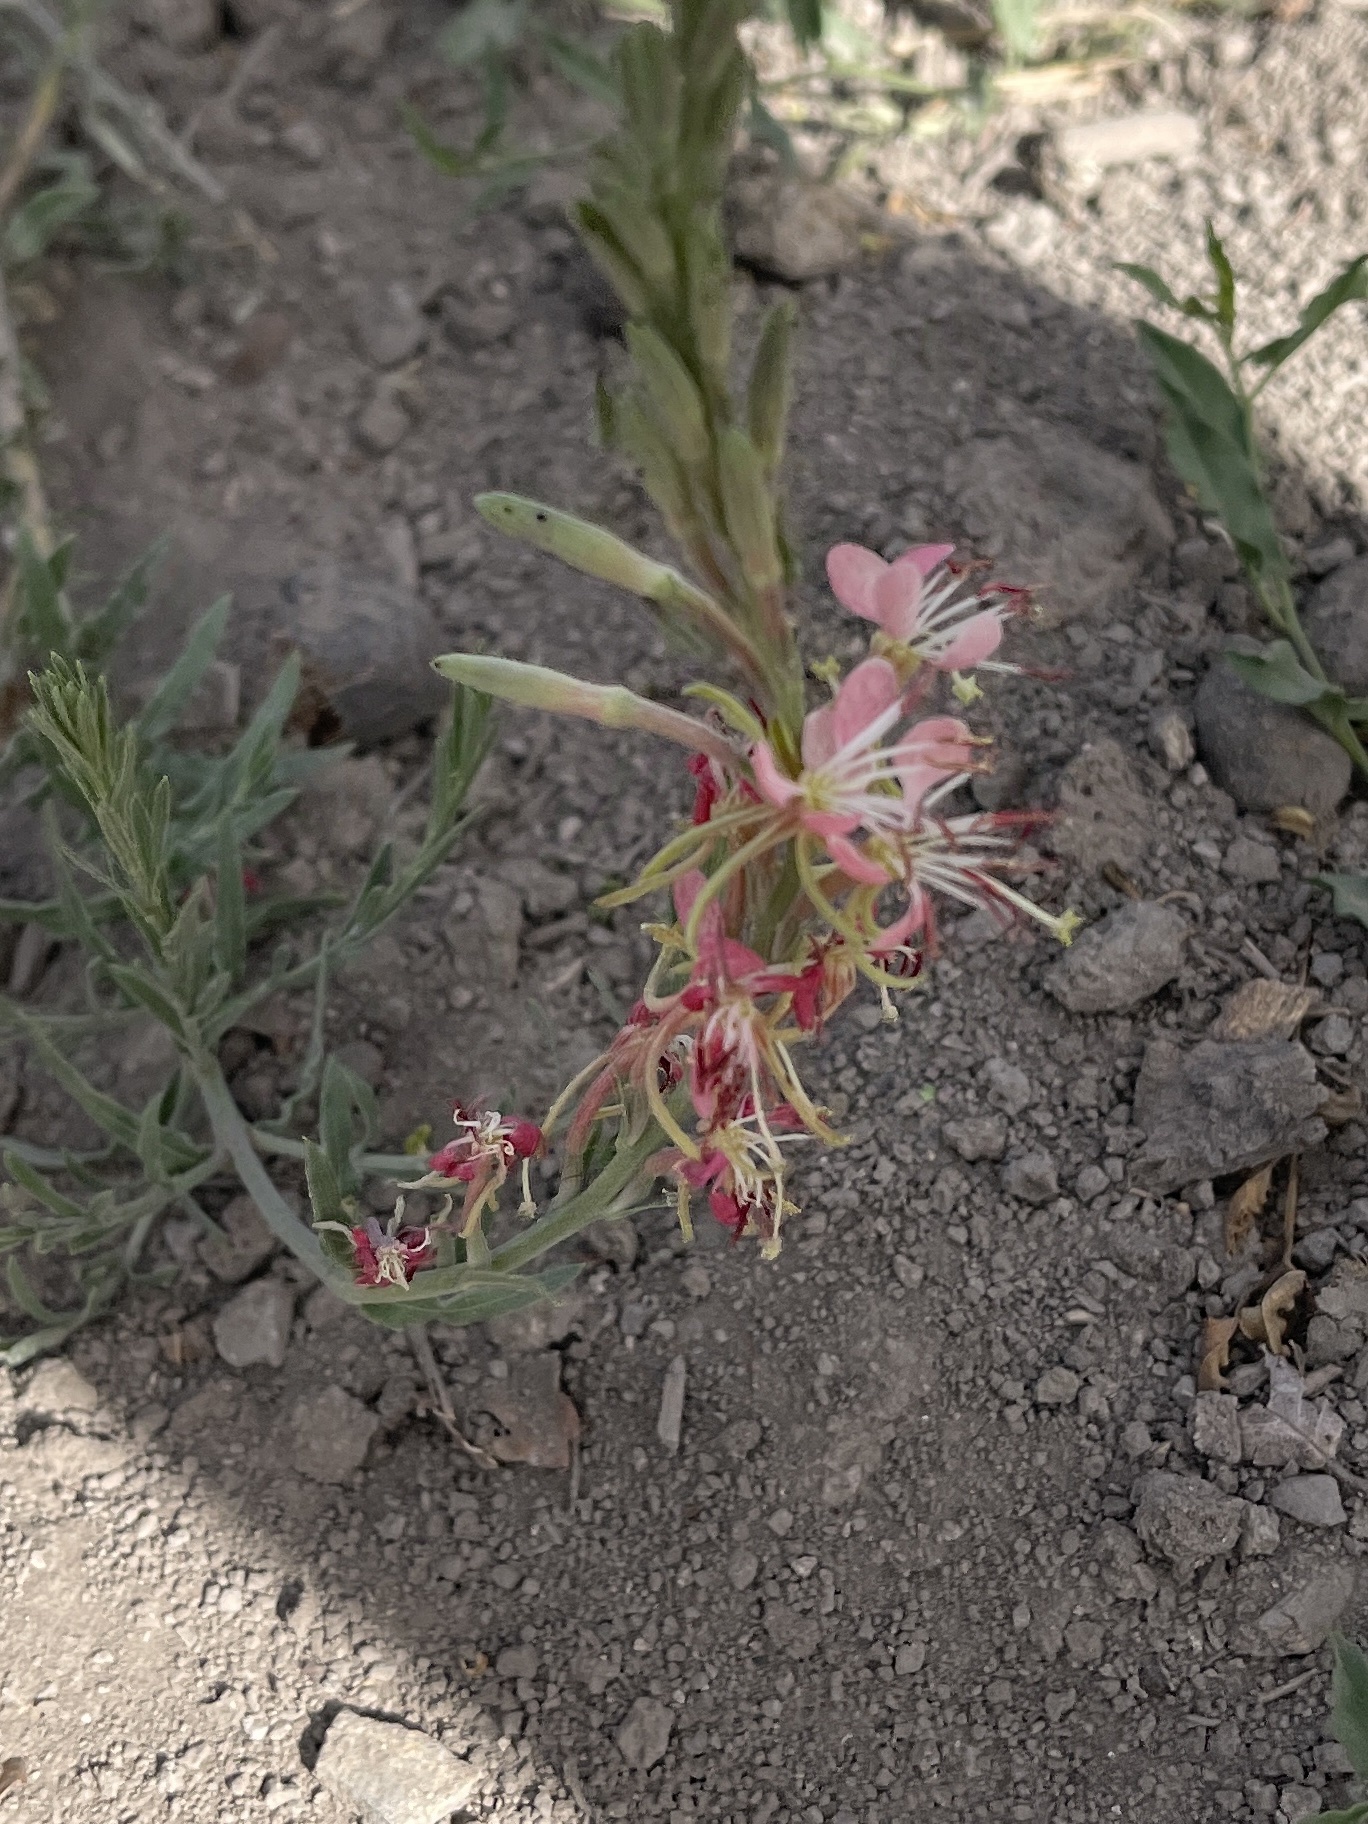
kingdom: Plantae
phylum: Tracheophyta
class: Magnoliopsida
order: Myrtales
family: Onagraceae
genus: Oenothera
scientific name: Oenothera suffrutescens
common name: Scarlet beeblossom
